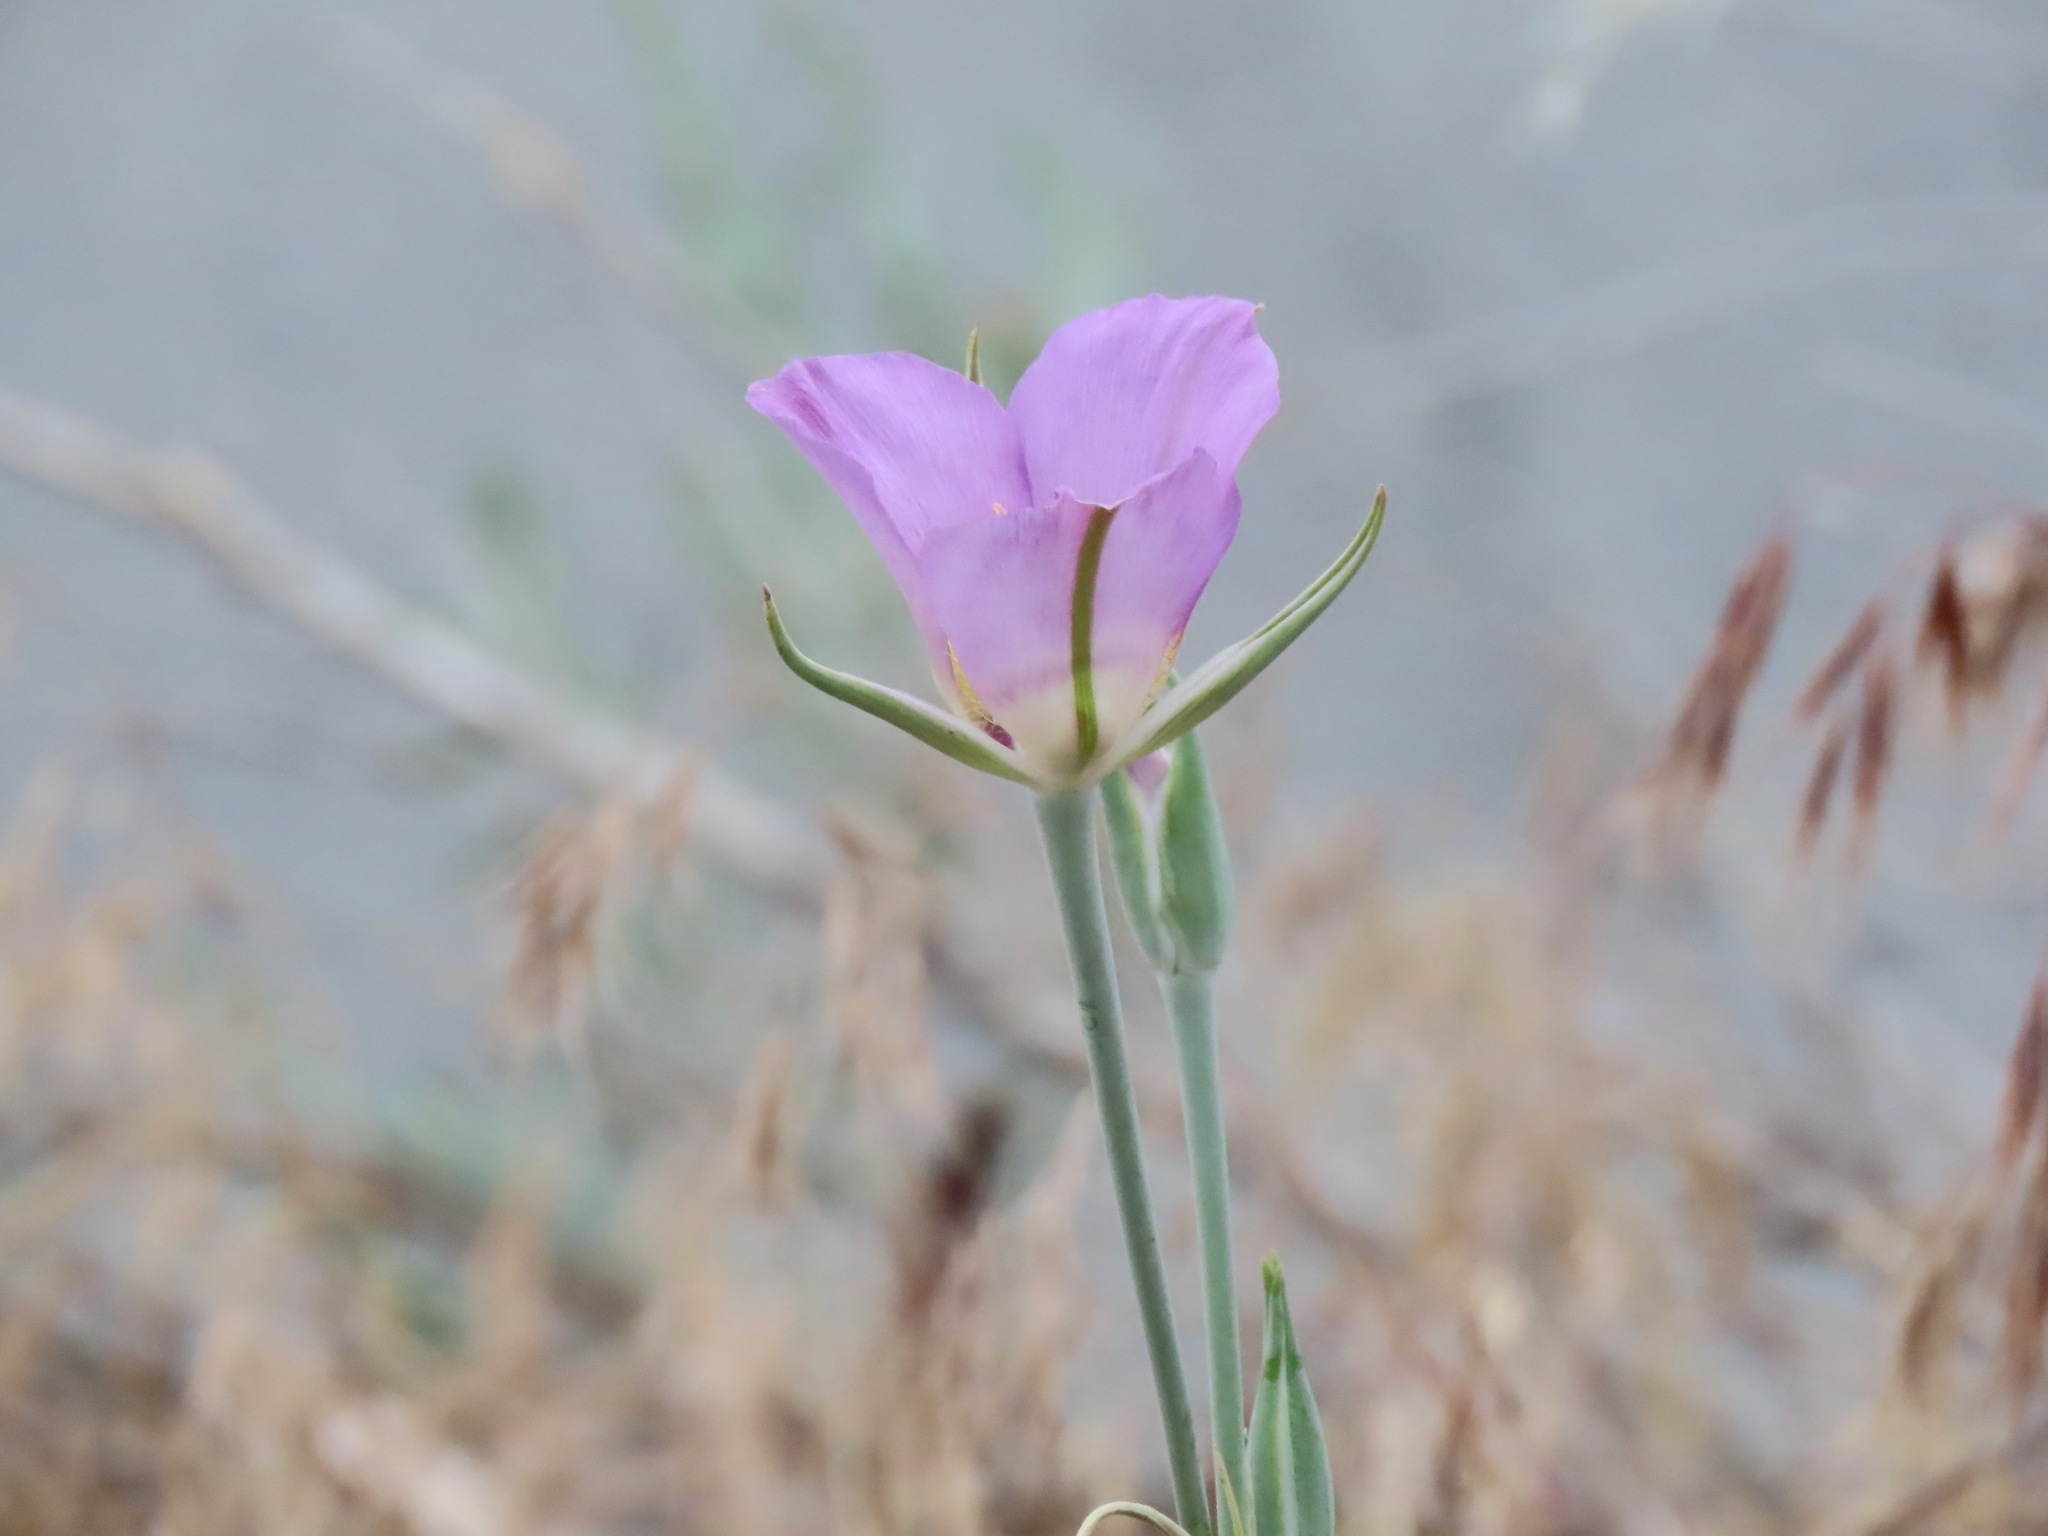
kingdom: Plantae
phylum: Tracheophyta
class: Liliopsida
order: Liliales
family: Liliaceae
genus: Calochortus
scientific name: Calochortus macrocarpus
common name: Green-band mariposa lily
